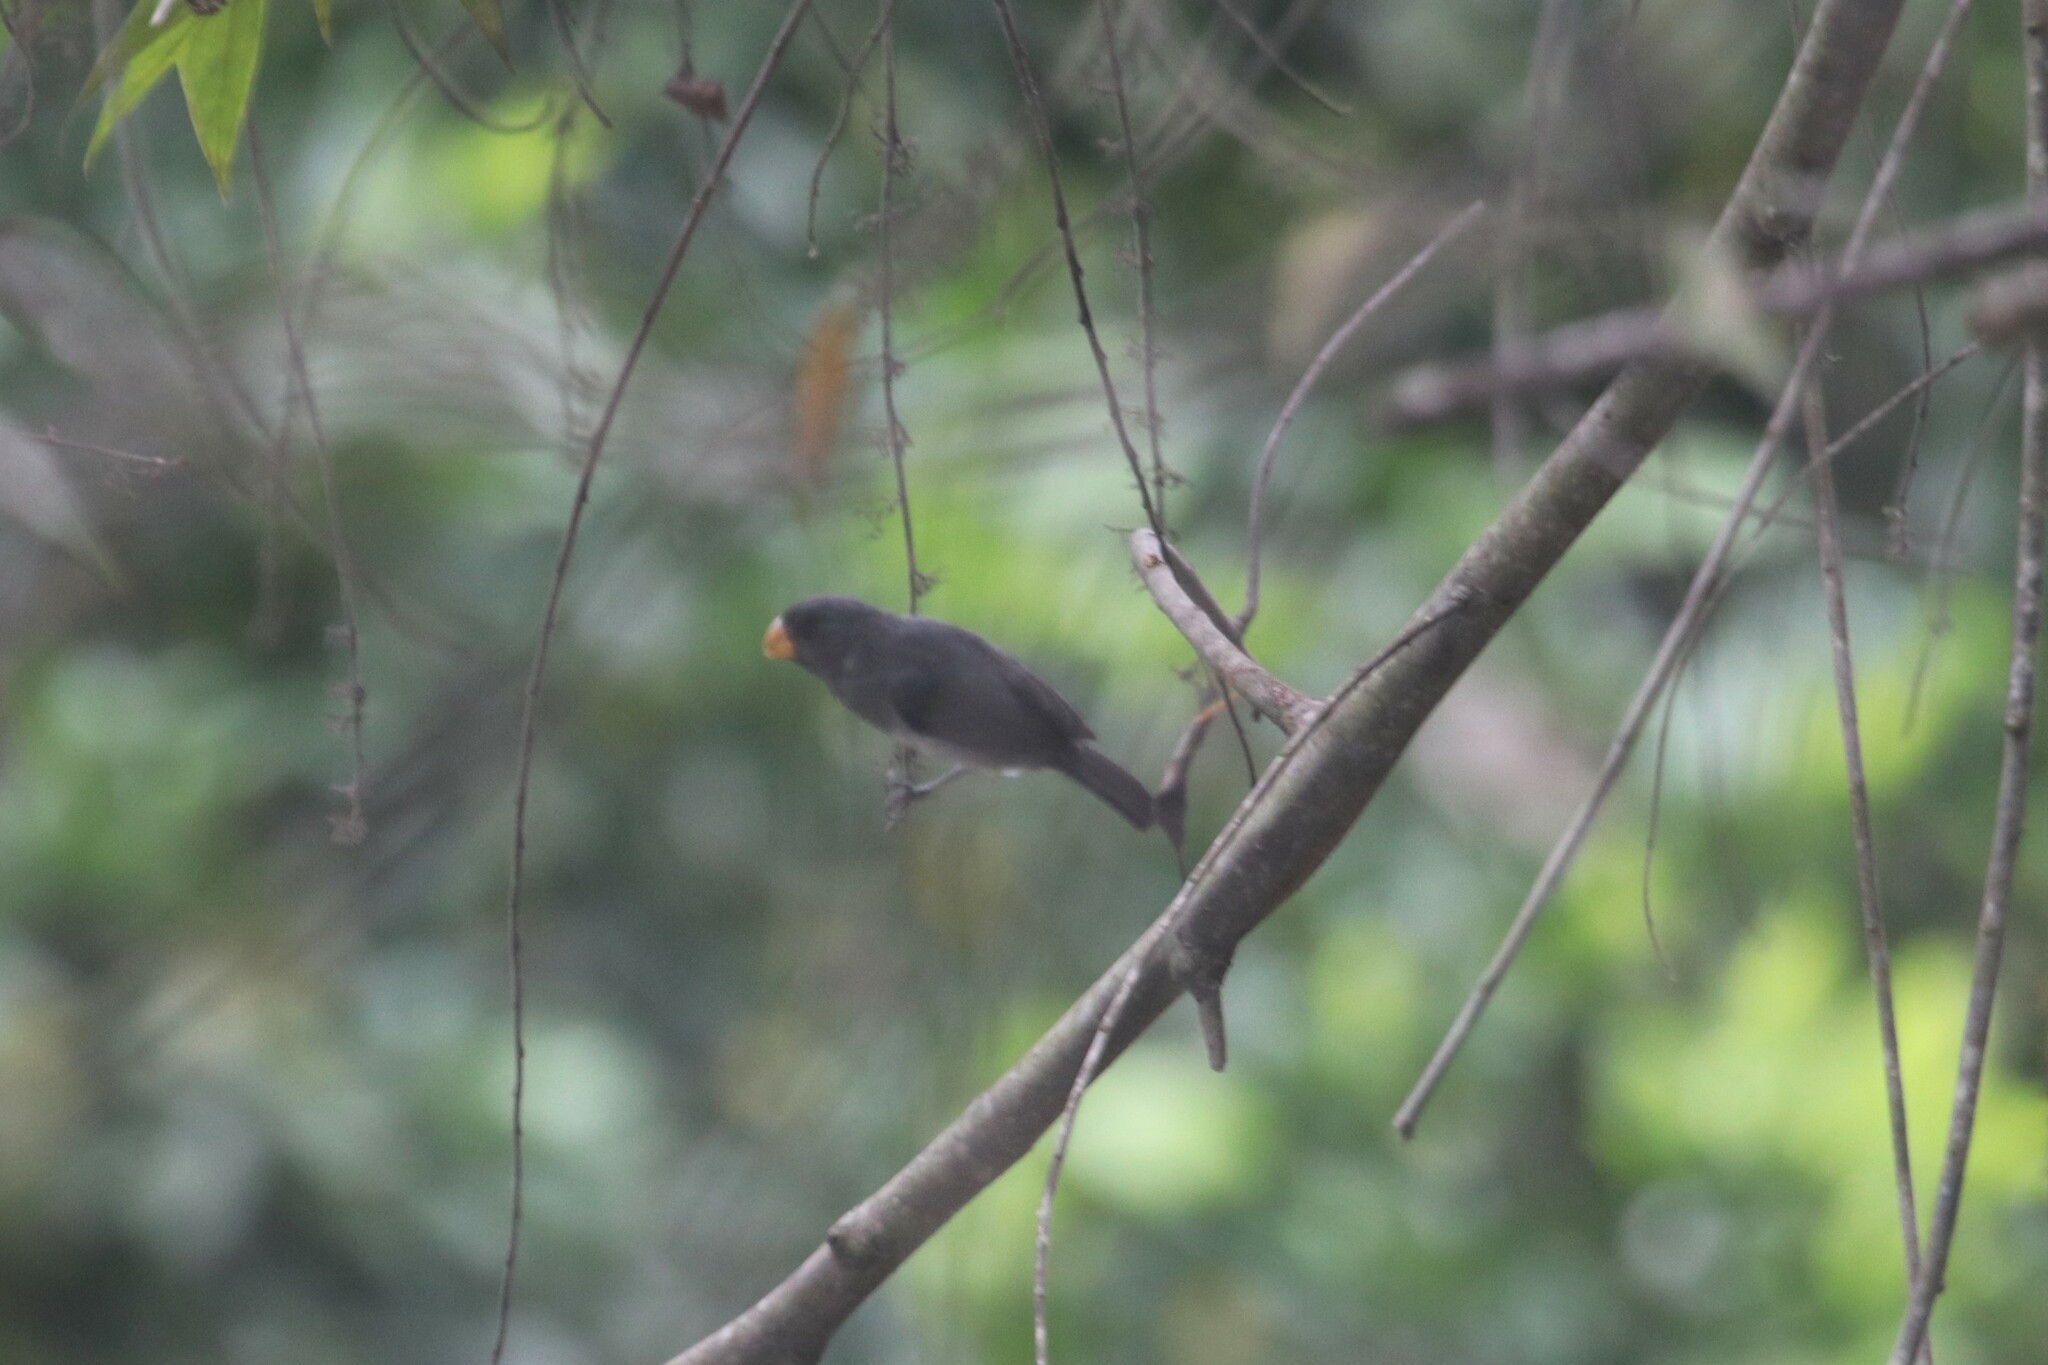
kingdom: Animalia
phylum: Chordata
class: Aves
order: Passeriformes
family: Thraupidae
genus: Sporophila
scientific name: Sporophila intermedia
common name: Grey seedeater
